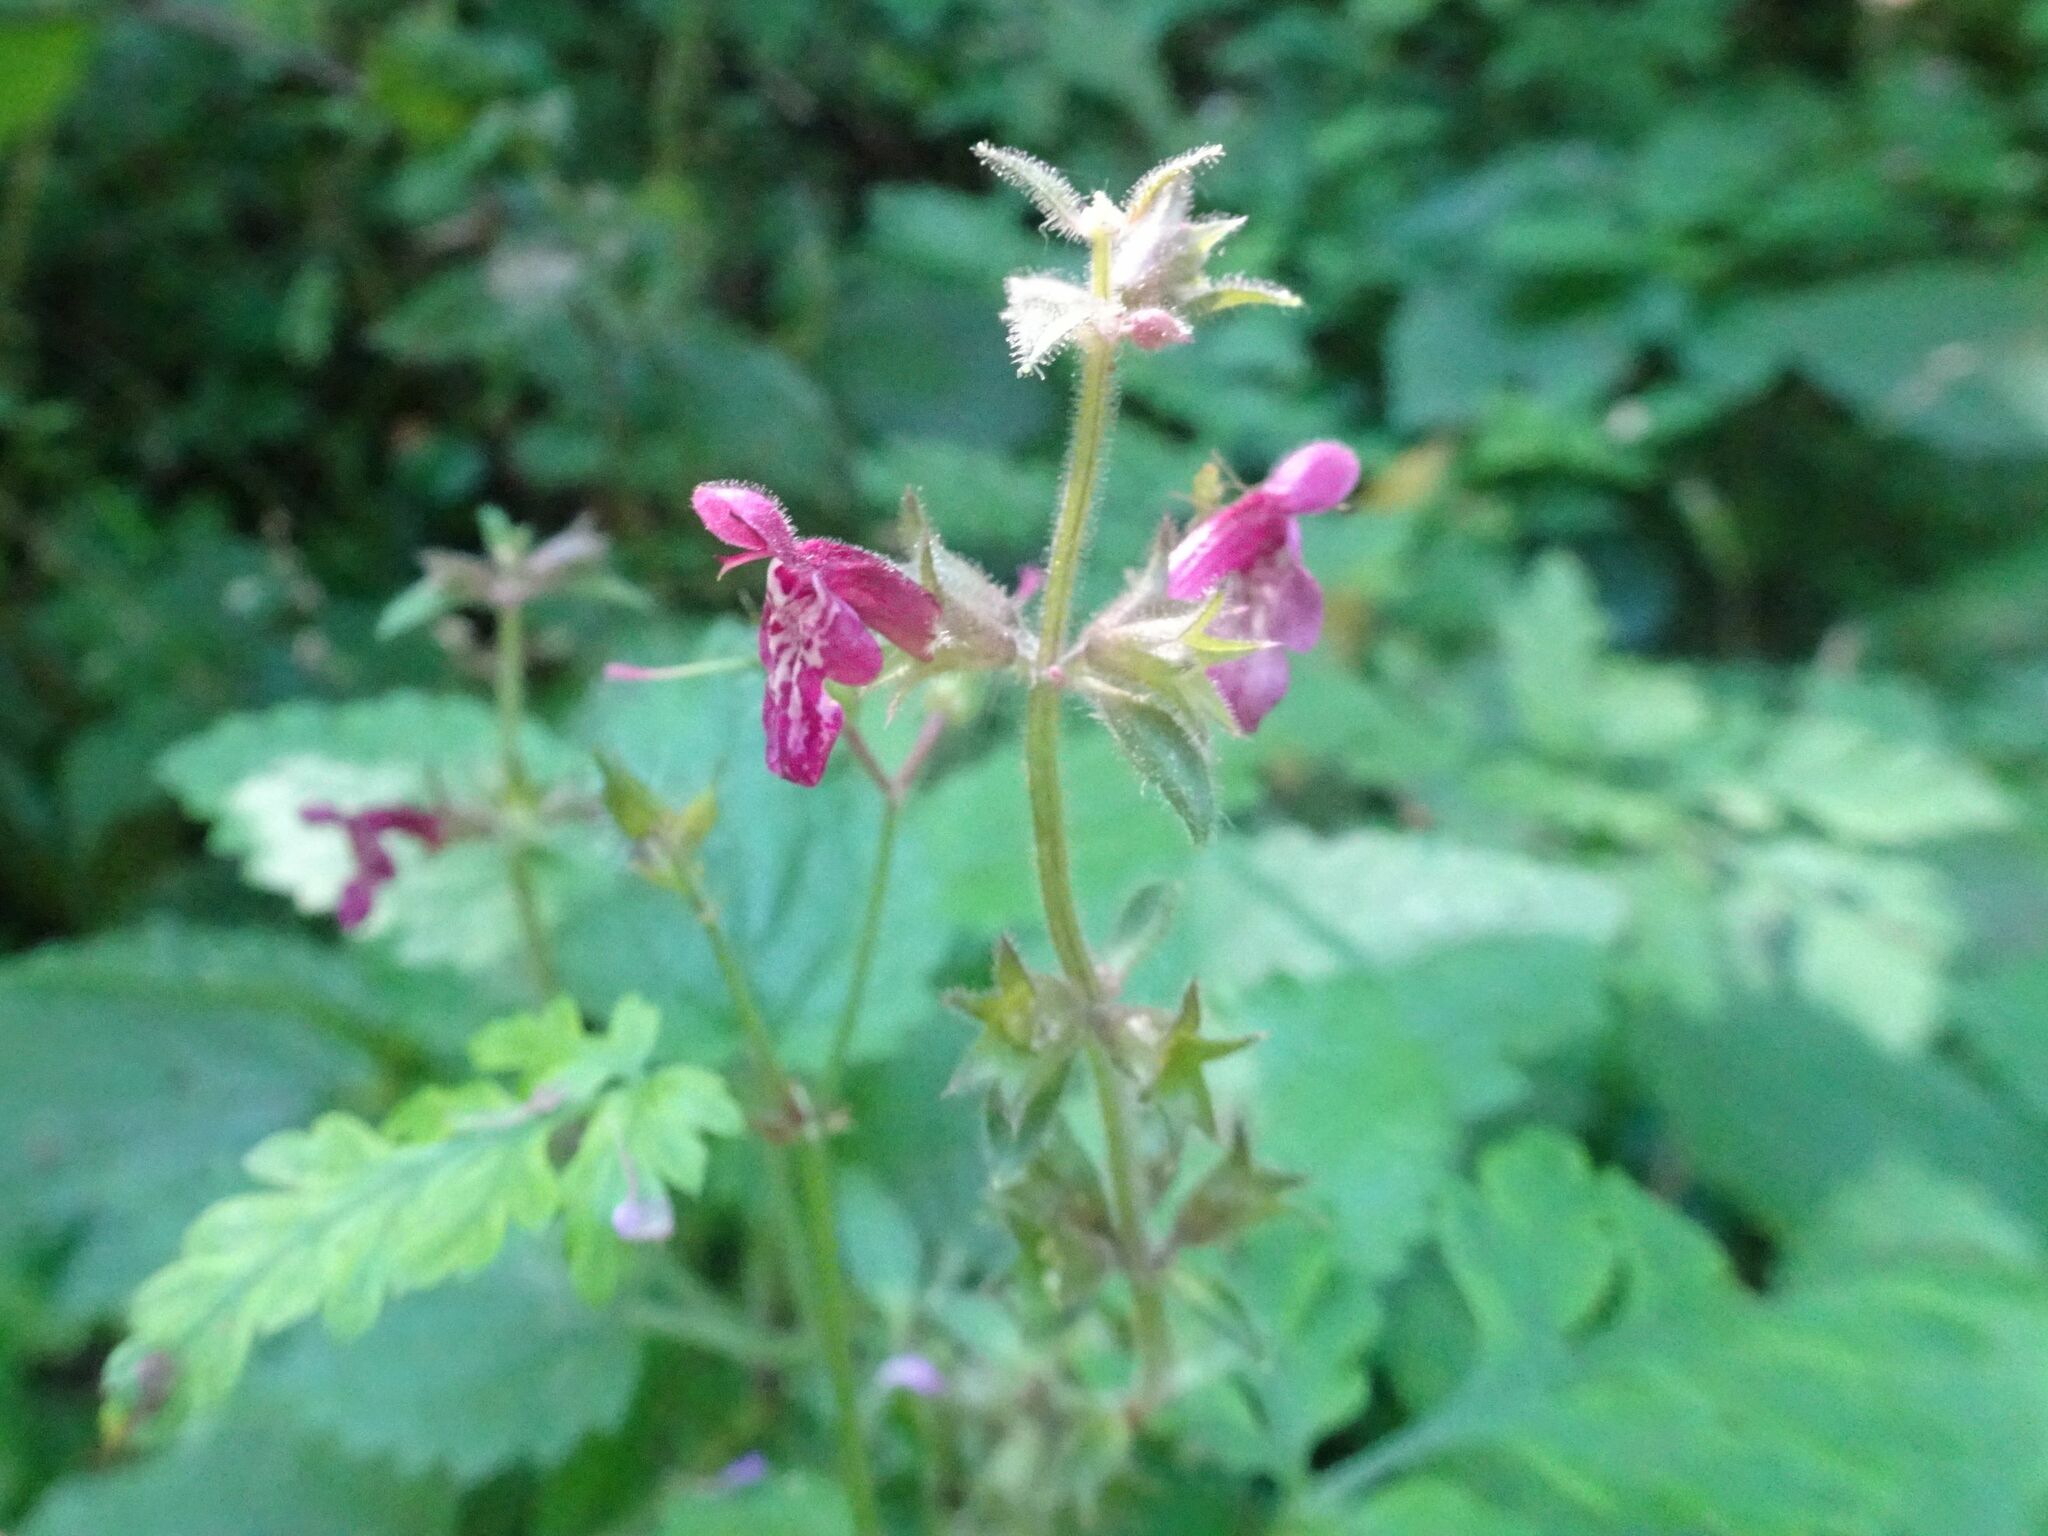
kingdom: Plantae
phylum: Tracheophyta
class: Magnoliopsida
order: Lamiales
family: Lamiaceae
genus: Stachys
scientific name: Stachys sylvatica
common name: Hedge woundwort
